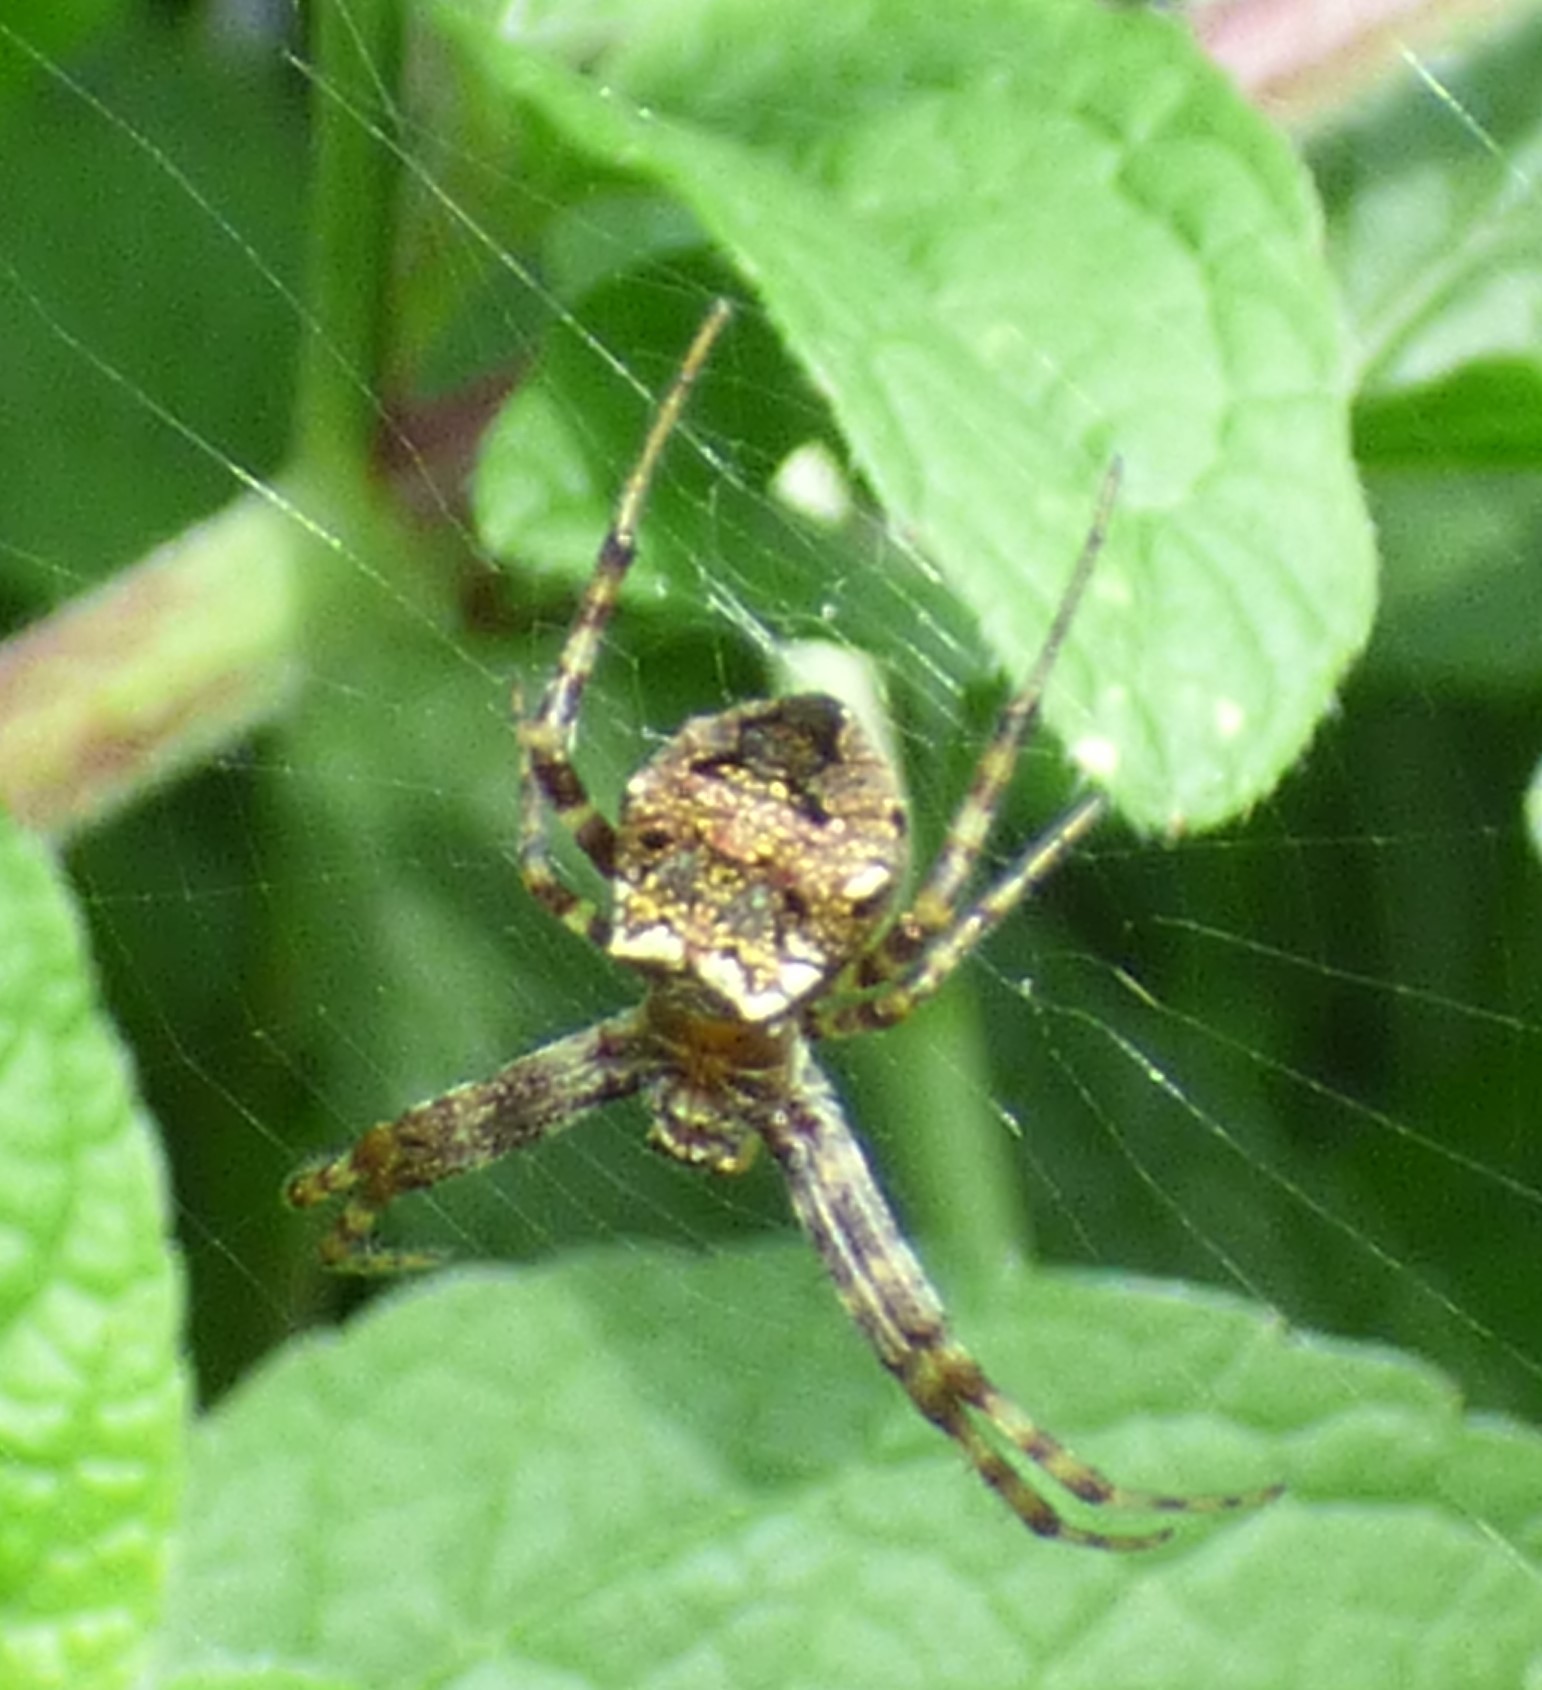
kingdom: Animalia
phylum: Arthropoda
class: Arachnida
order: Araneae
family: Araneidae
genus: Gea
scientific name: Gea heptagon
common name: Orb weavers
